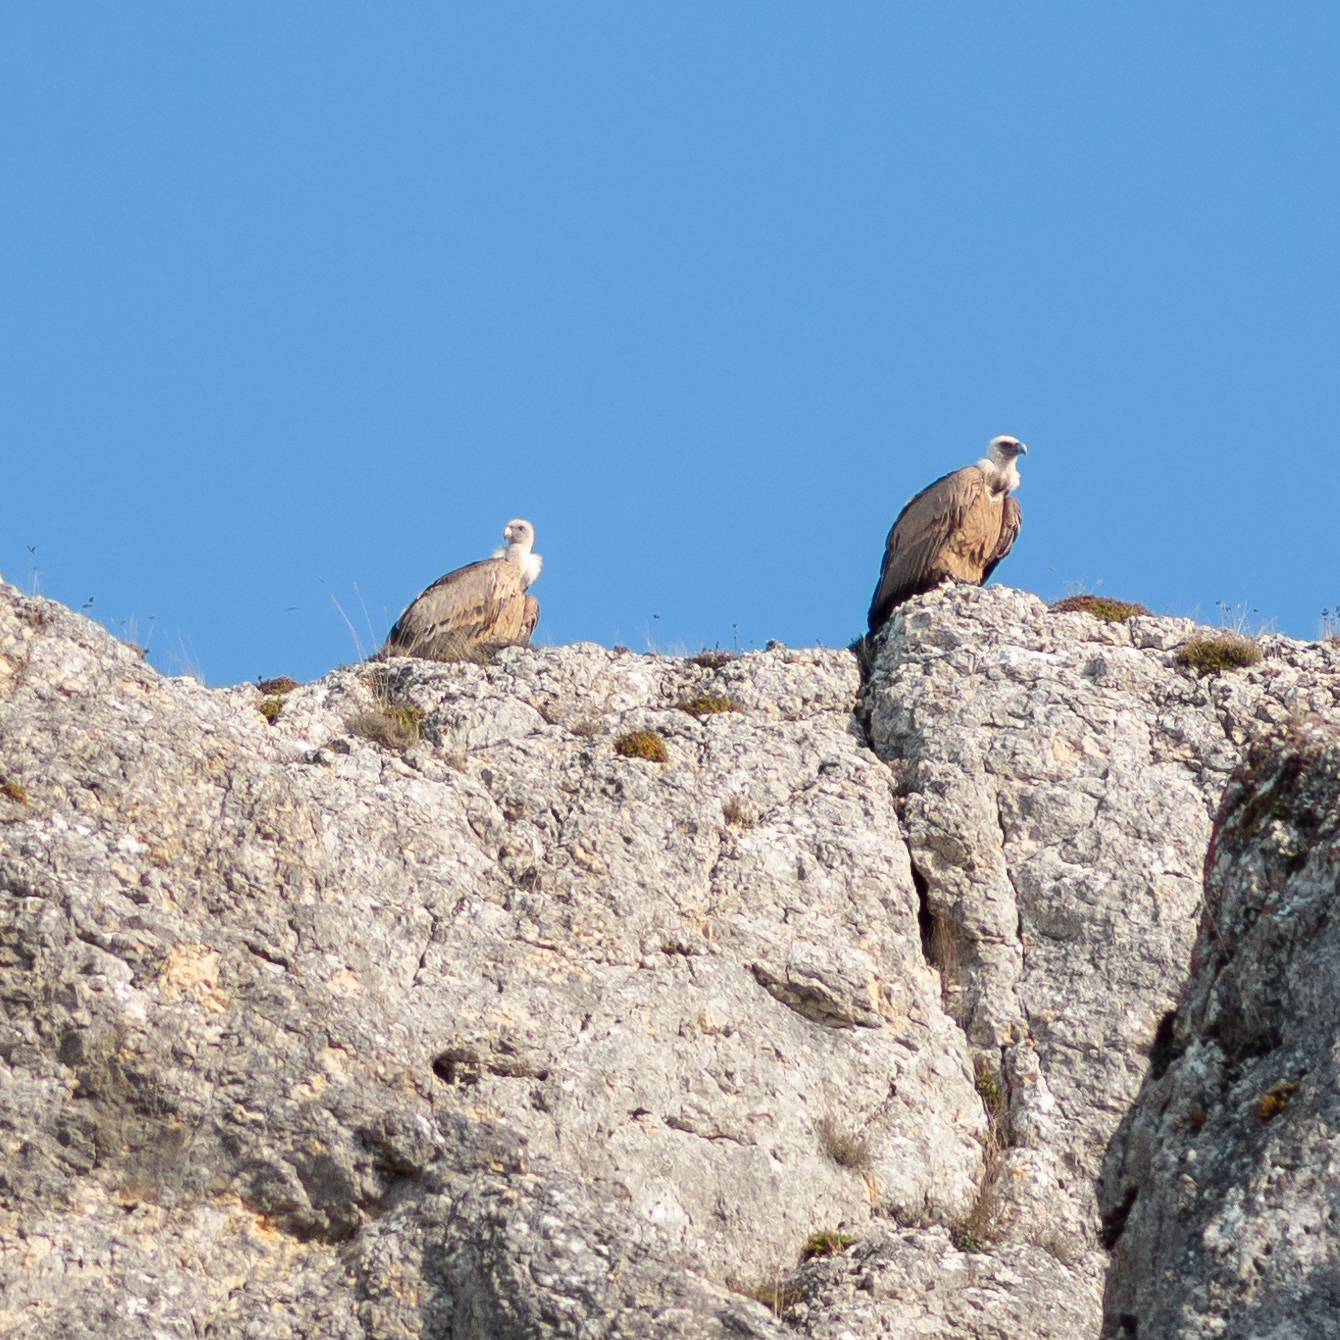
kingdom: Animalia
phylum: Chordata
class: Aves
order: Accipitriformes
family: Accipitridae
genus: Gyps
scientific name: Gyps fulvus
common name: Griffon vulture
